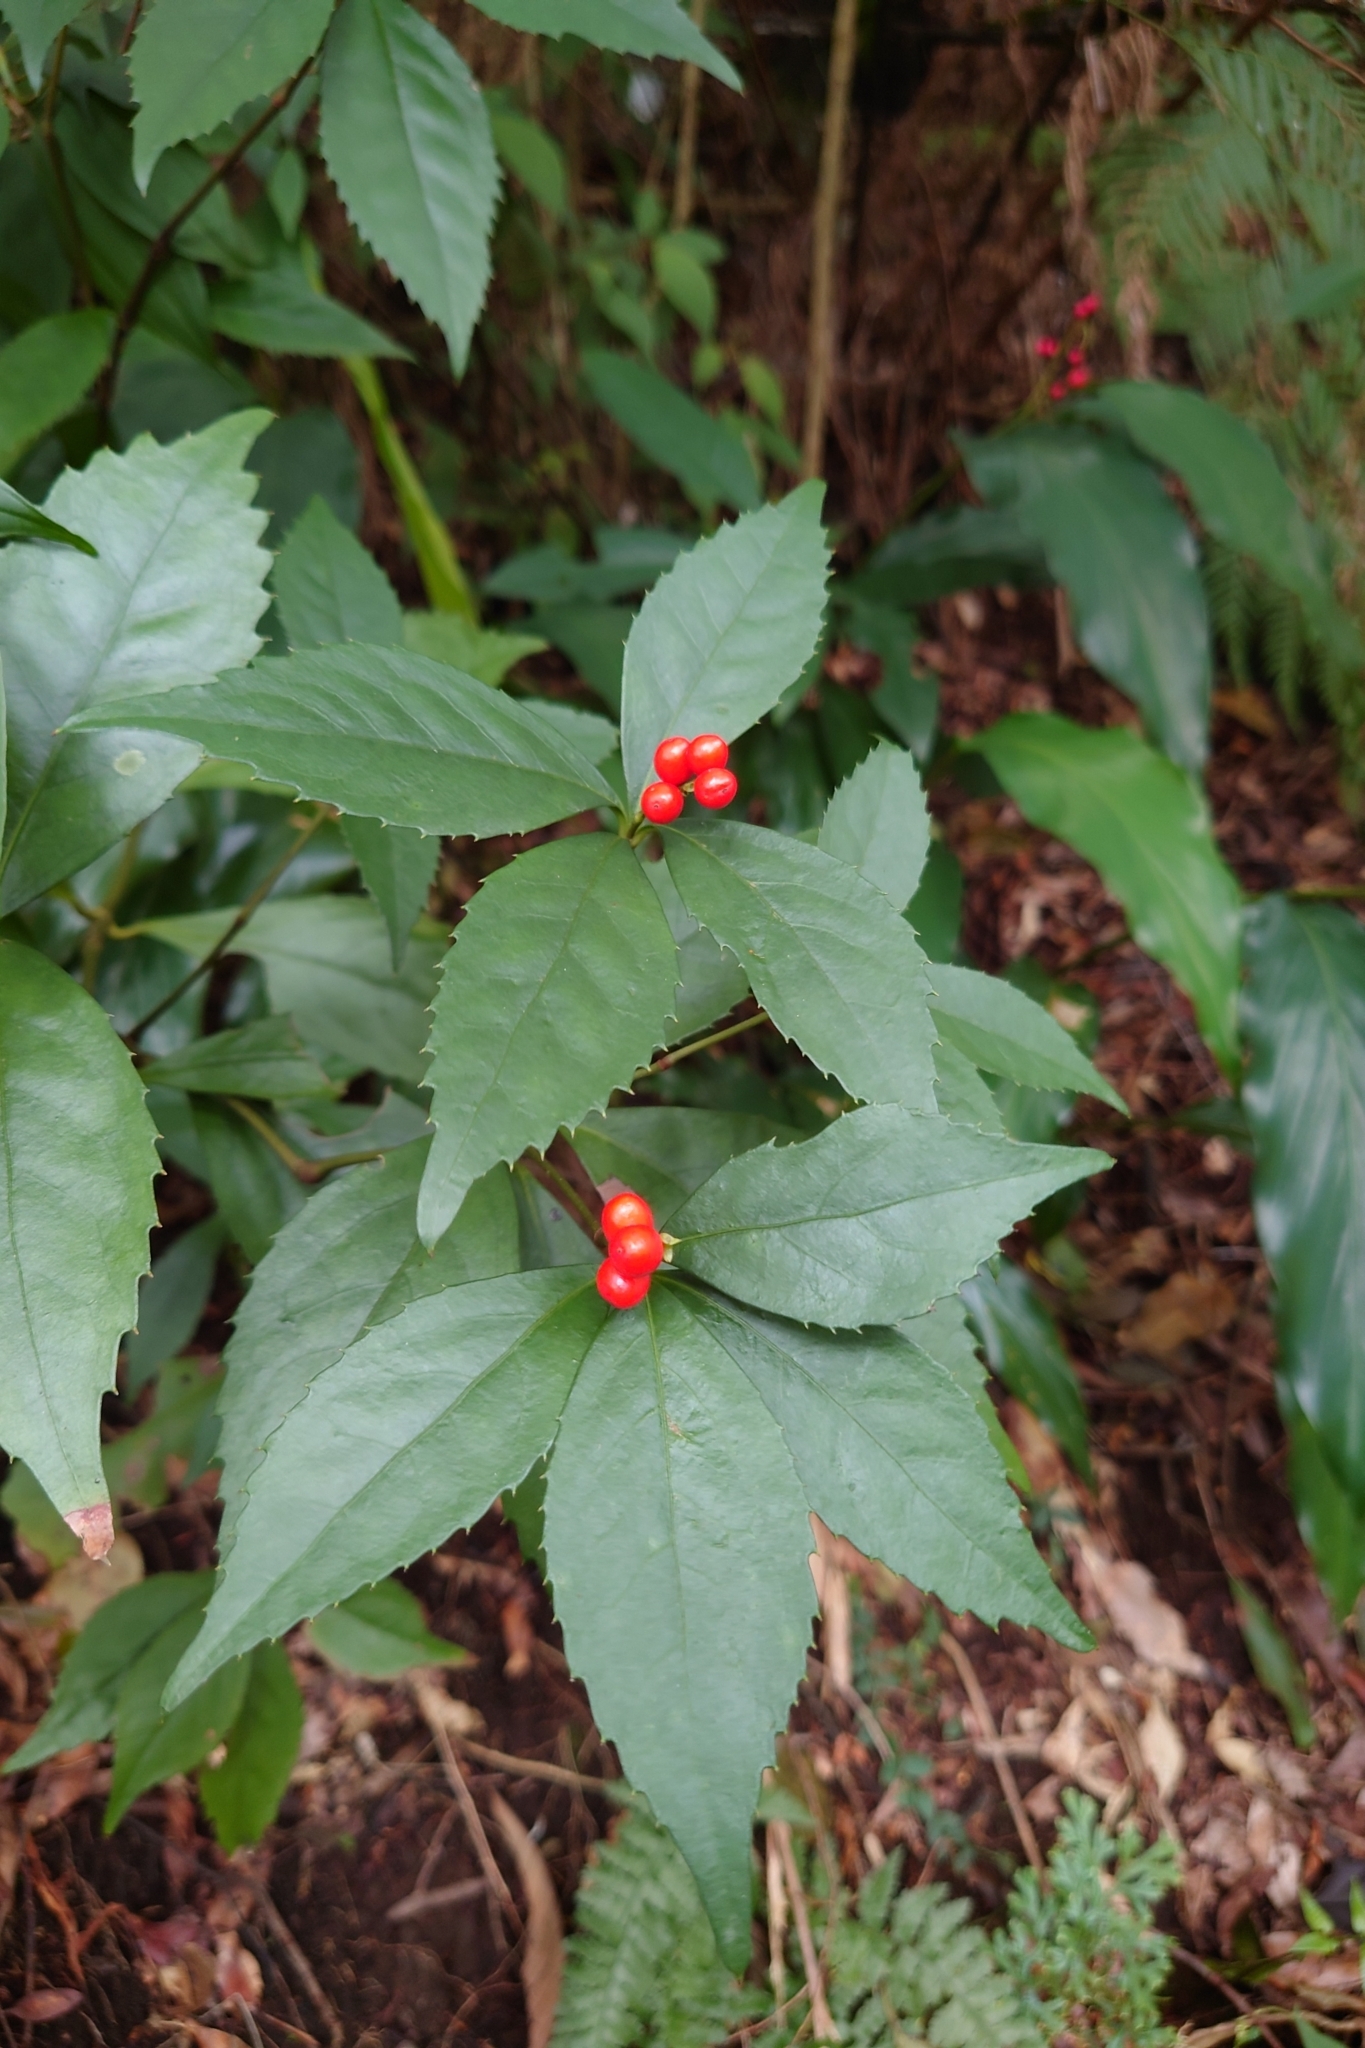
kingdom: Plantae
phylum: Tracheophyta
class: Magnoliopsida
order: Chloranthales
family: Chloranthaceae
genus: Sarcandra
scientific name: Sarcandra glabra
